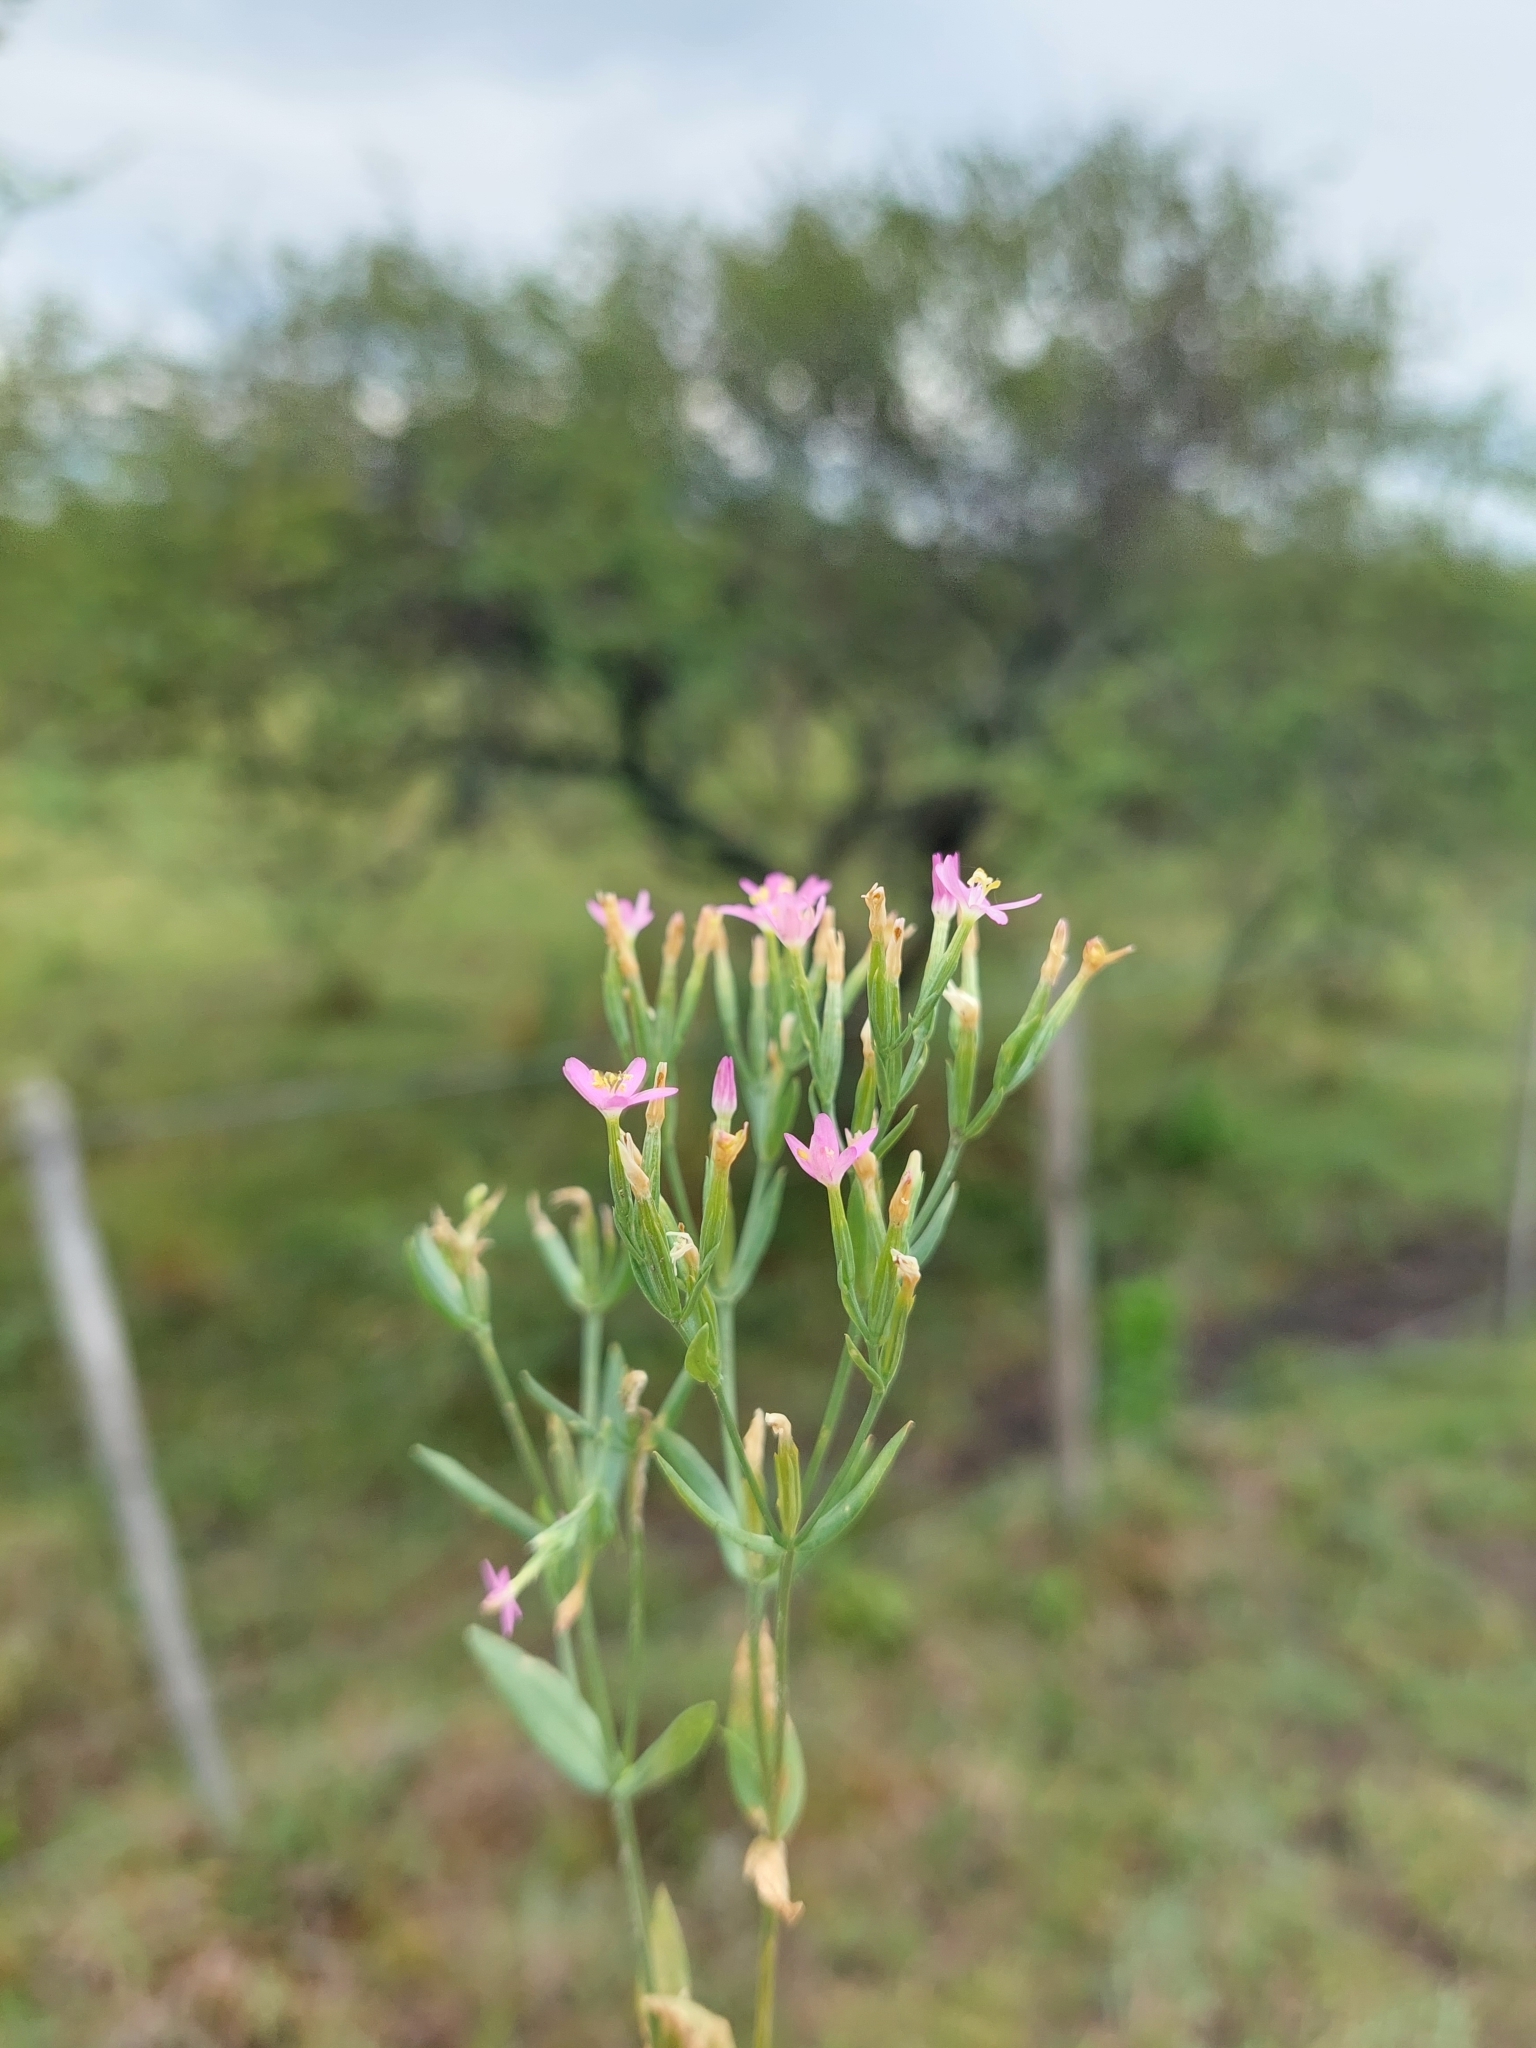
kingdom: Plantae
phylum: Tracheophyta
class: Magnoliopsida
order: Gentianales
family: Gentianaceae
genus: Centaurium
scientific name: Centaurium pulchellum
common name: Lesser centaury
